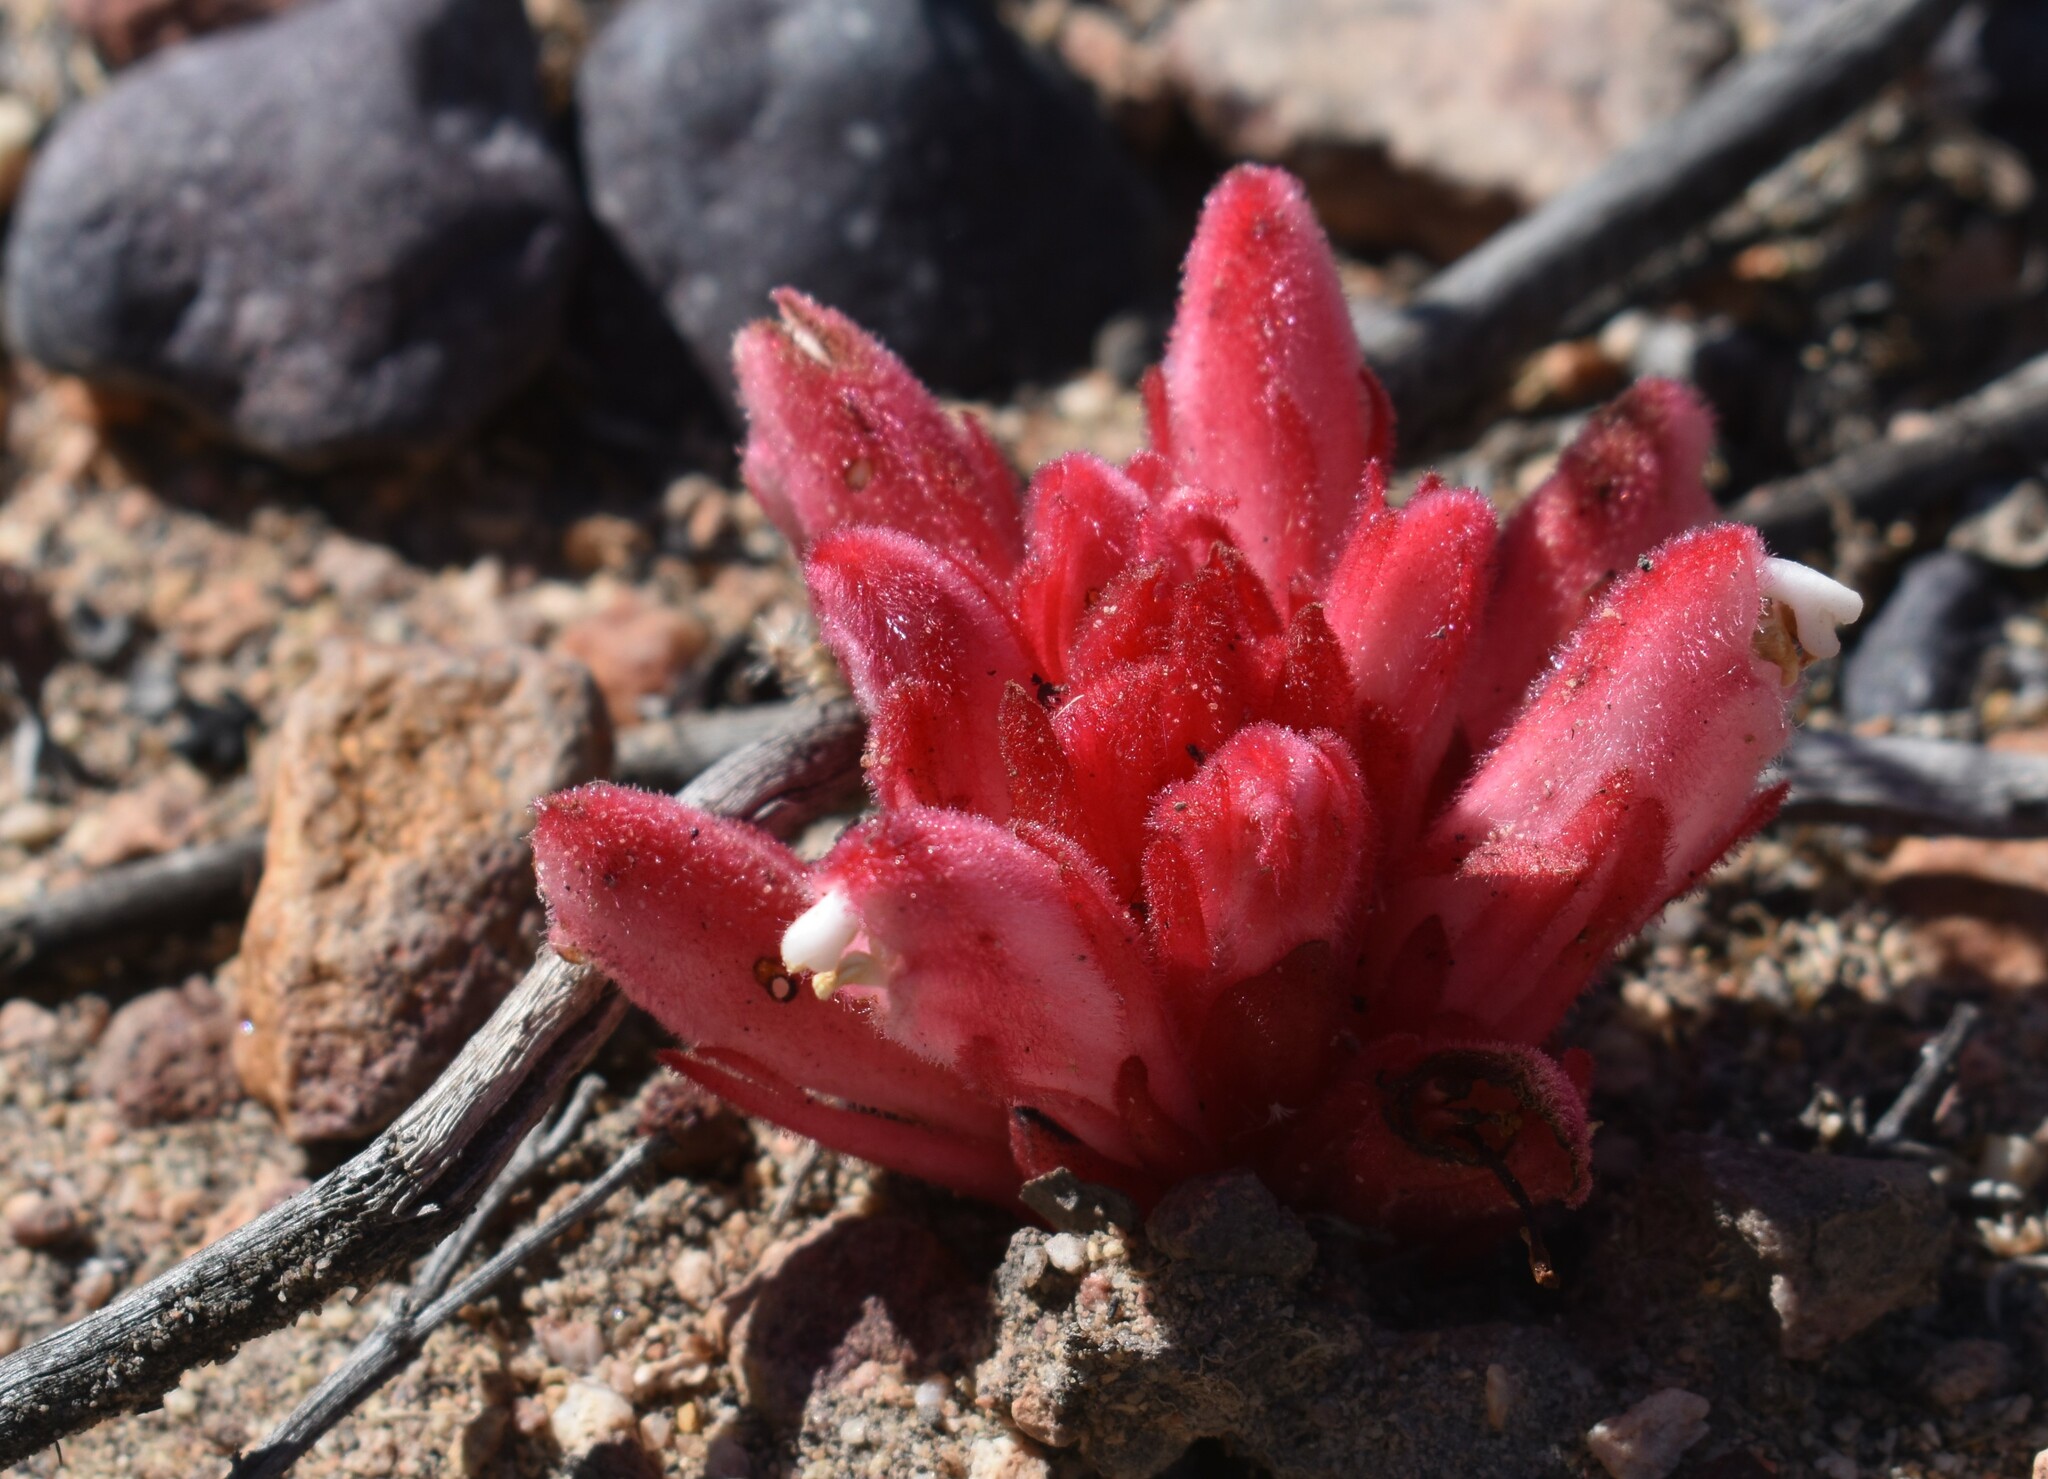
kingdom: Plantae
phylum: Tracheophyta
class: Magnoliopsida
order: Lamiales
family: Orobanchaceae
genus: Hyobanche
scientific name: Hyobanche sanguinea
